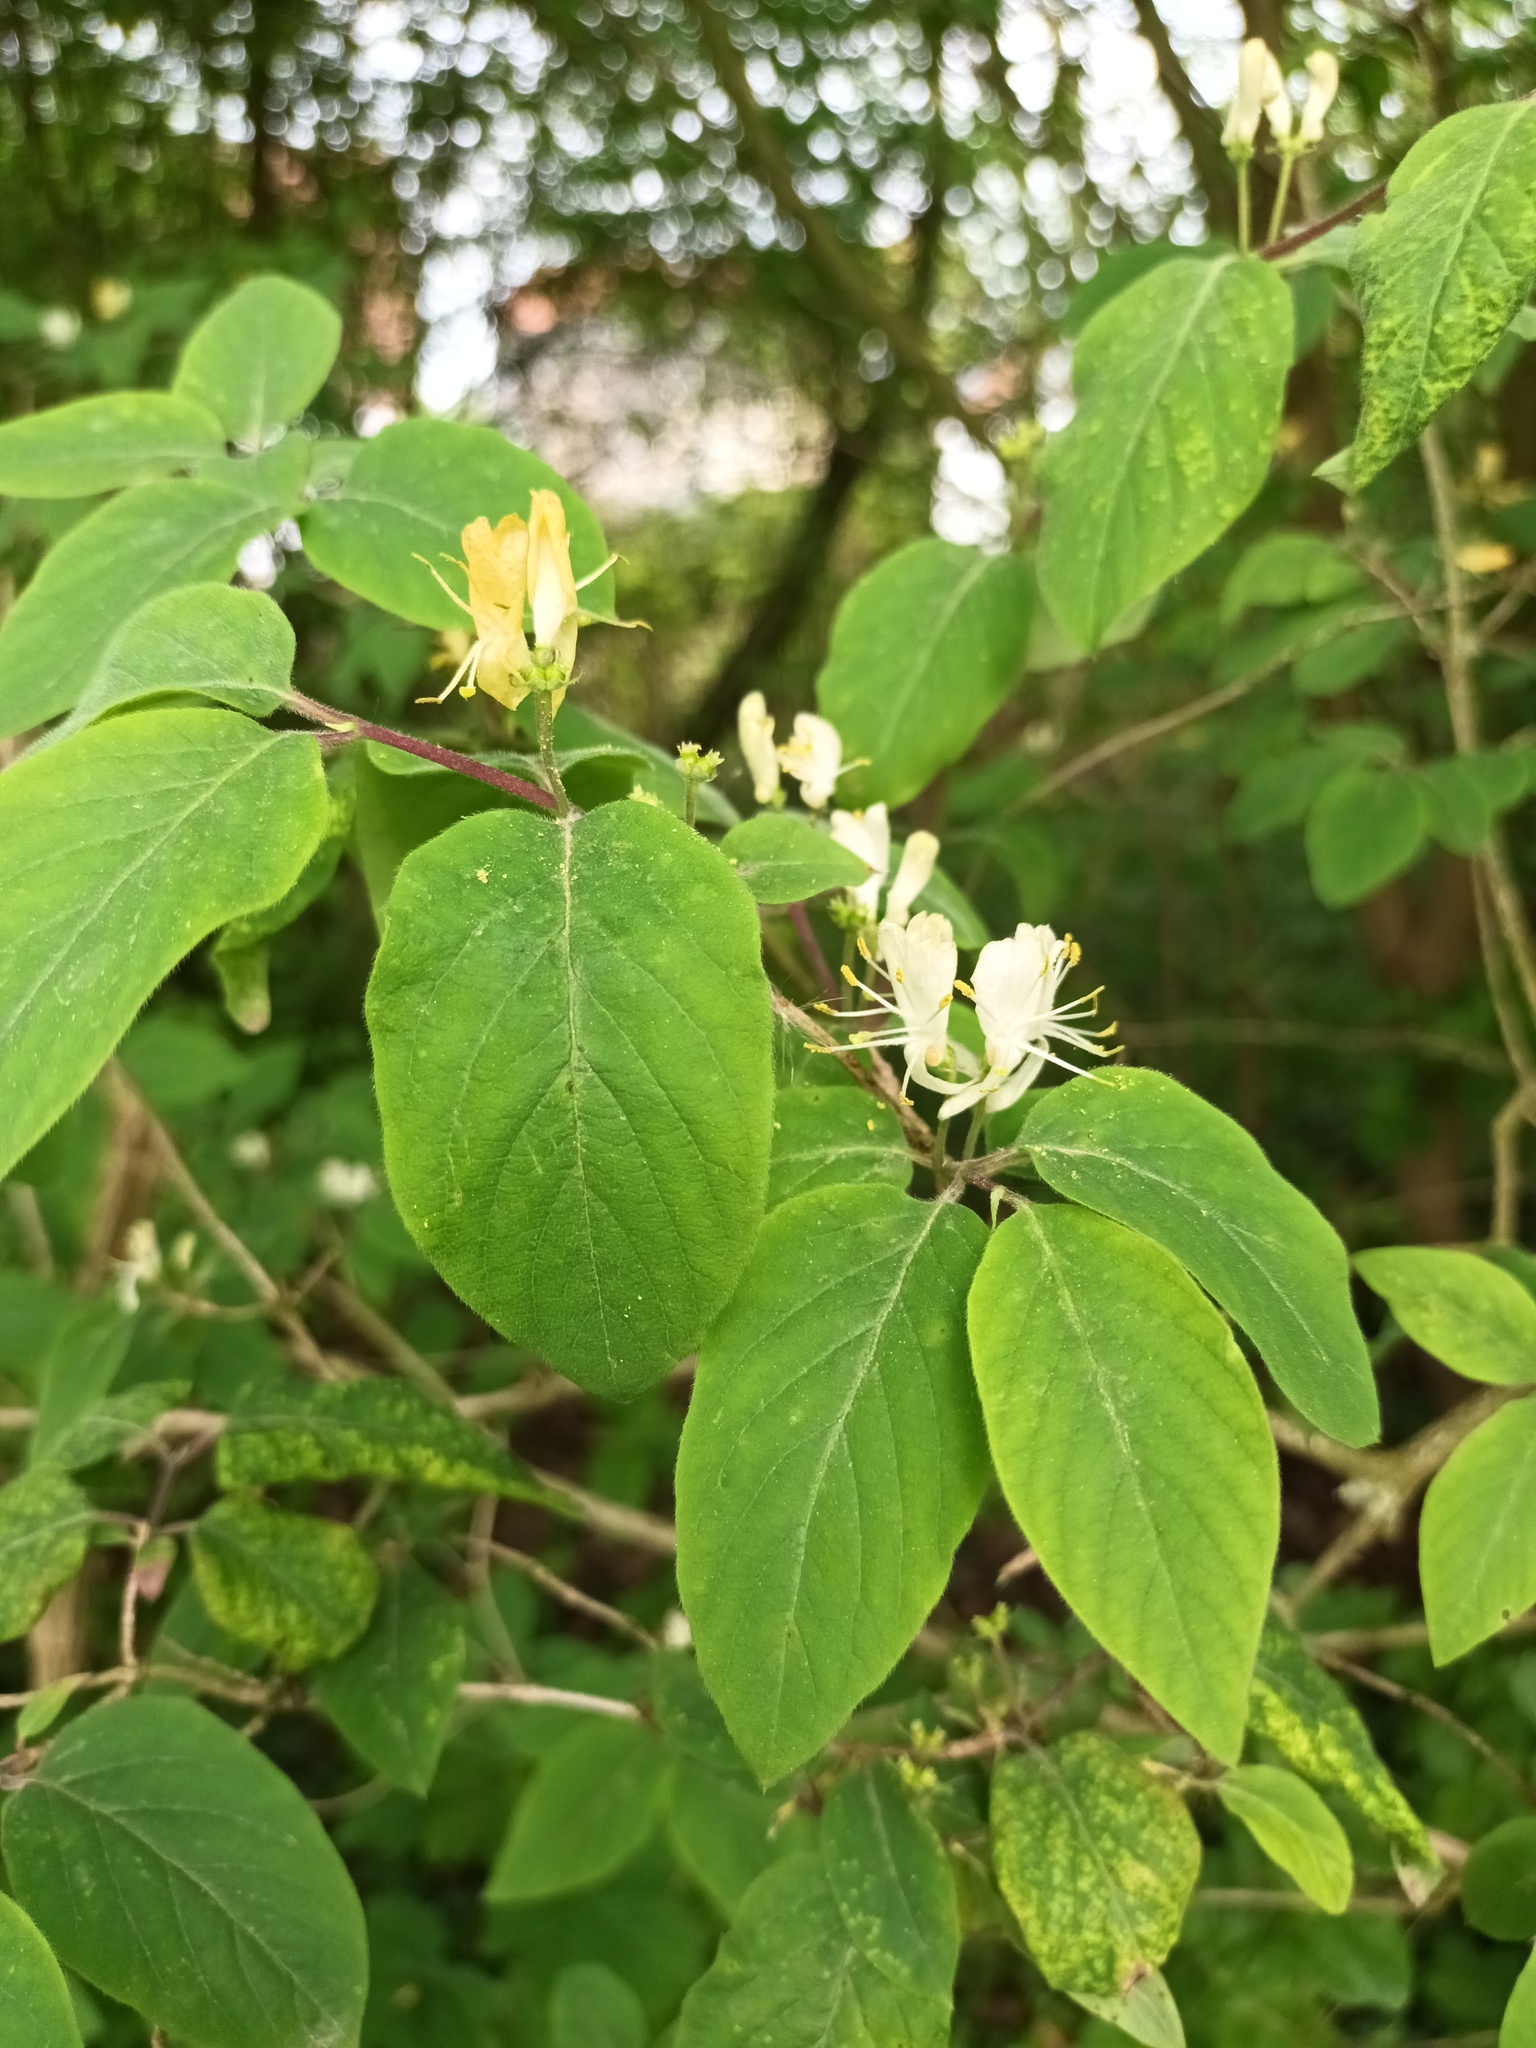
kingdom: Plantae
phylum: Tracheophyta
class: Magnoliopsida
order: Dipsacales
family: Caprifoliaceae
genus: Lonicera
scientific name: Lonicera xylosteum
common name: Fly honeysuckle
